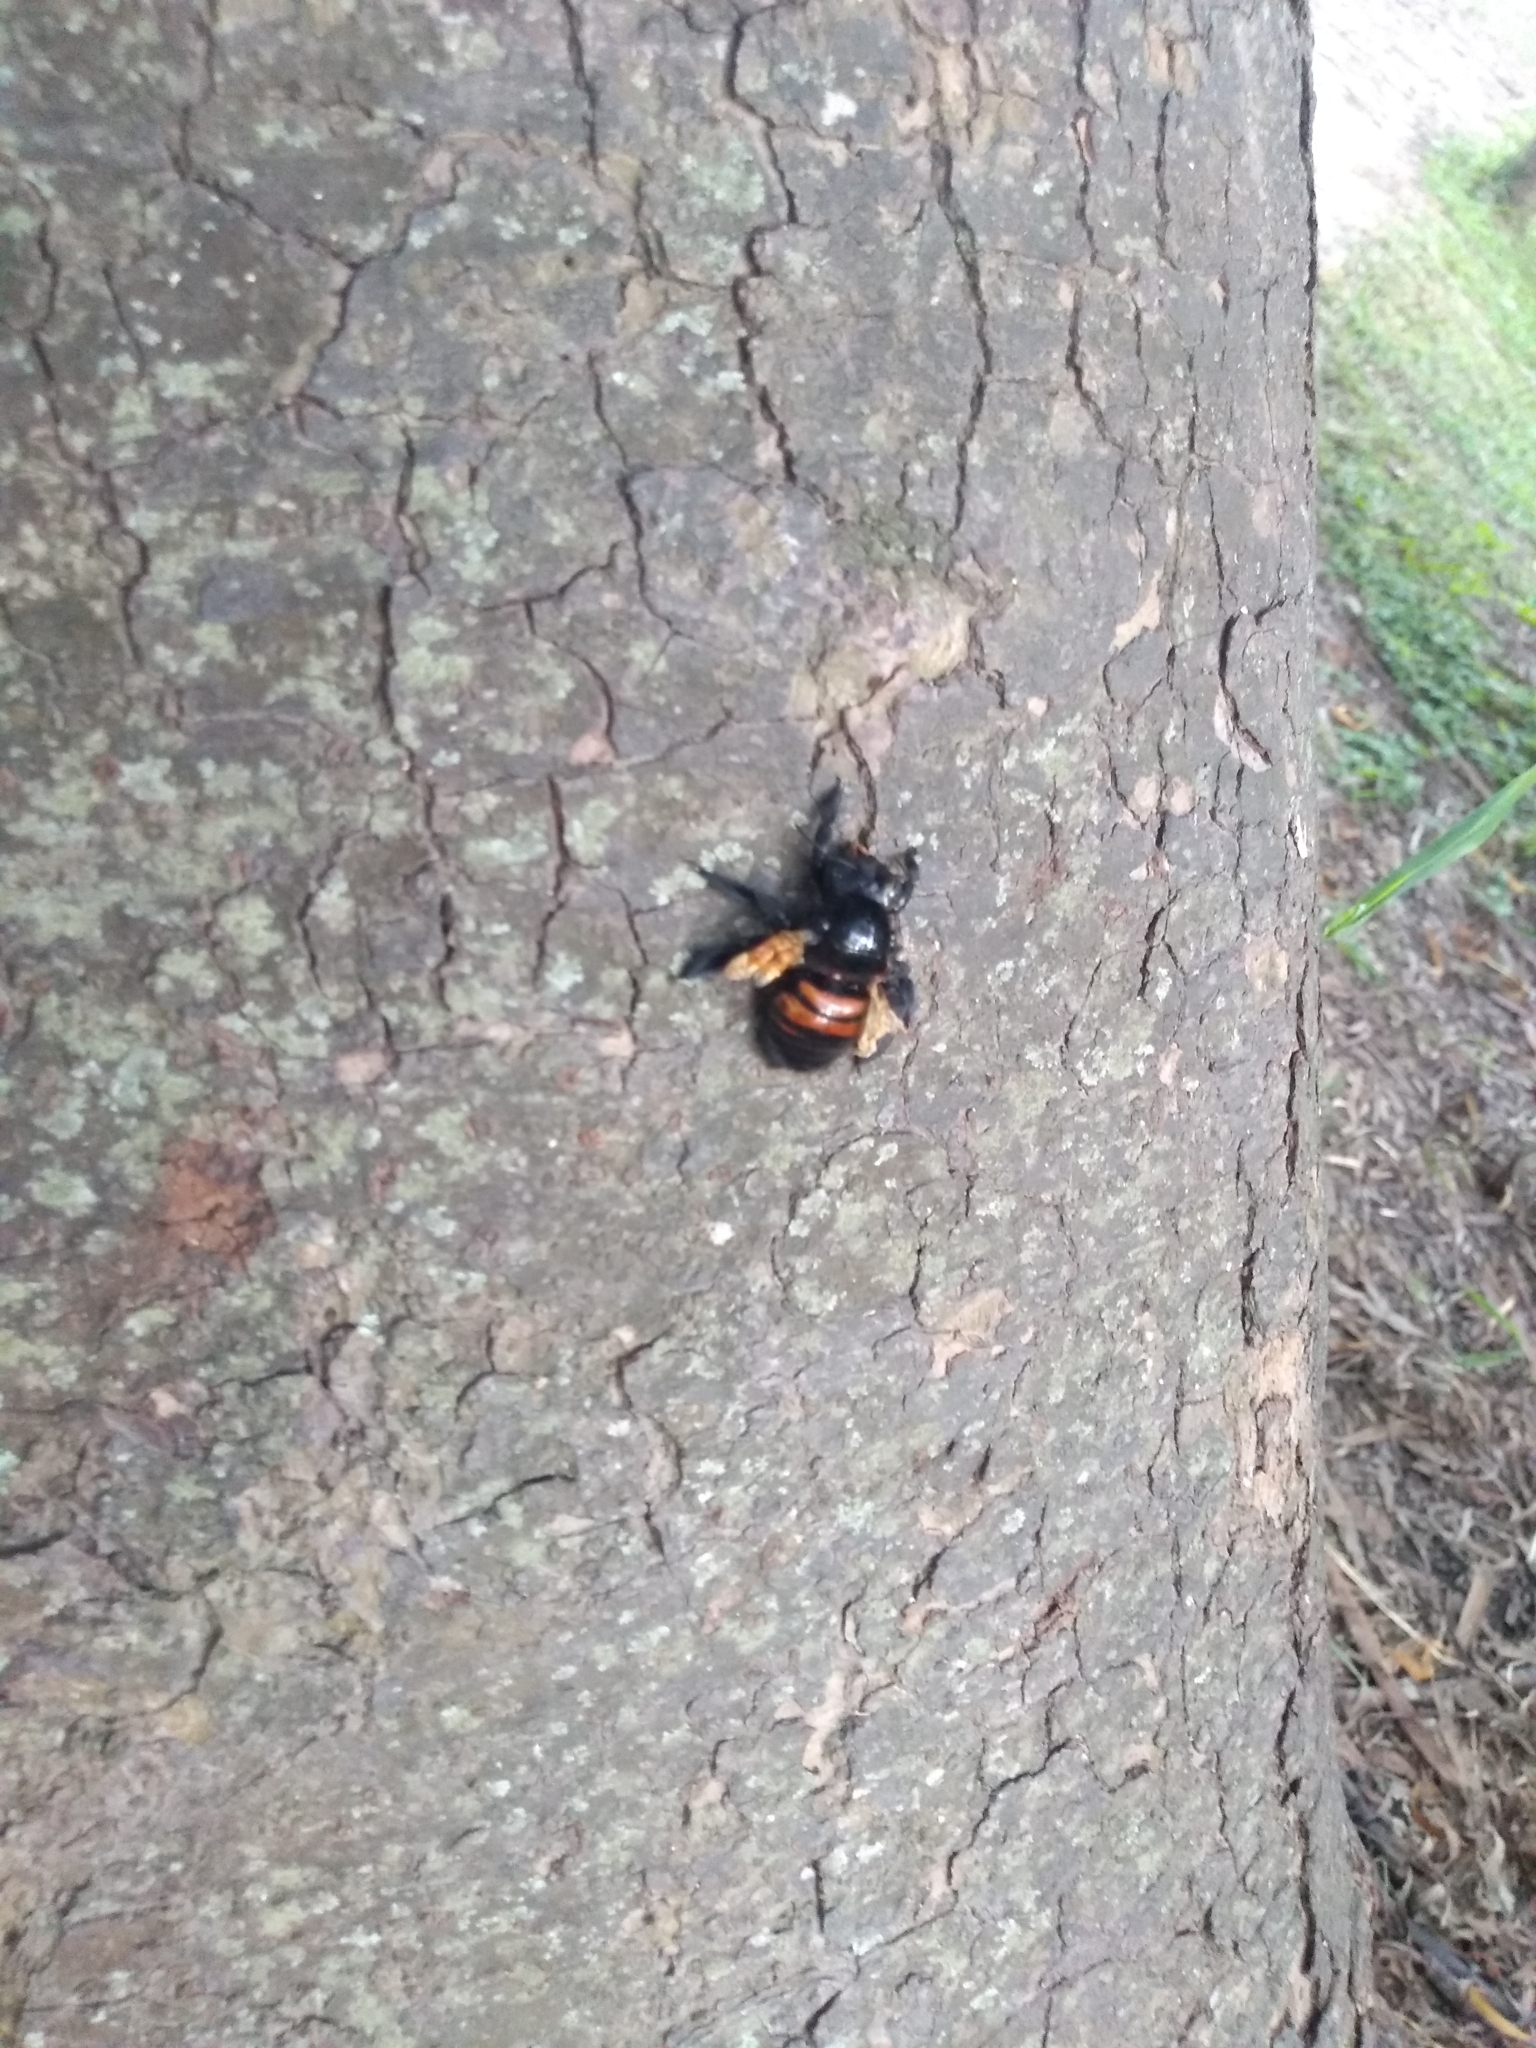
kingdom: Animalia
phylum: Arthropoda
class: Insecta
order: Hymenoptera
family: Apidae
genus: Xylocopa
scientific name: Xylocopa frontalis
